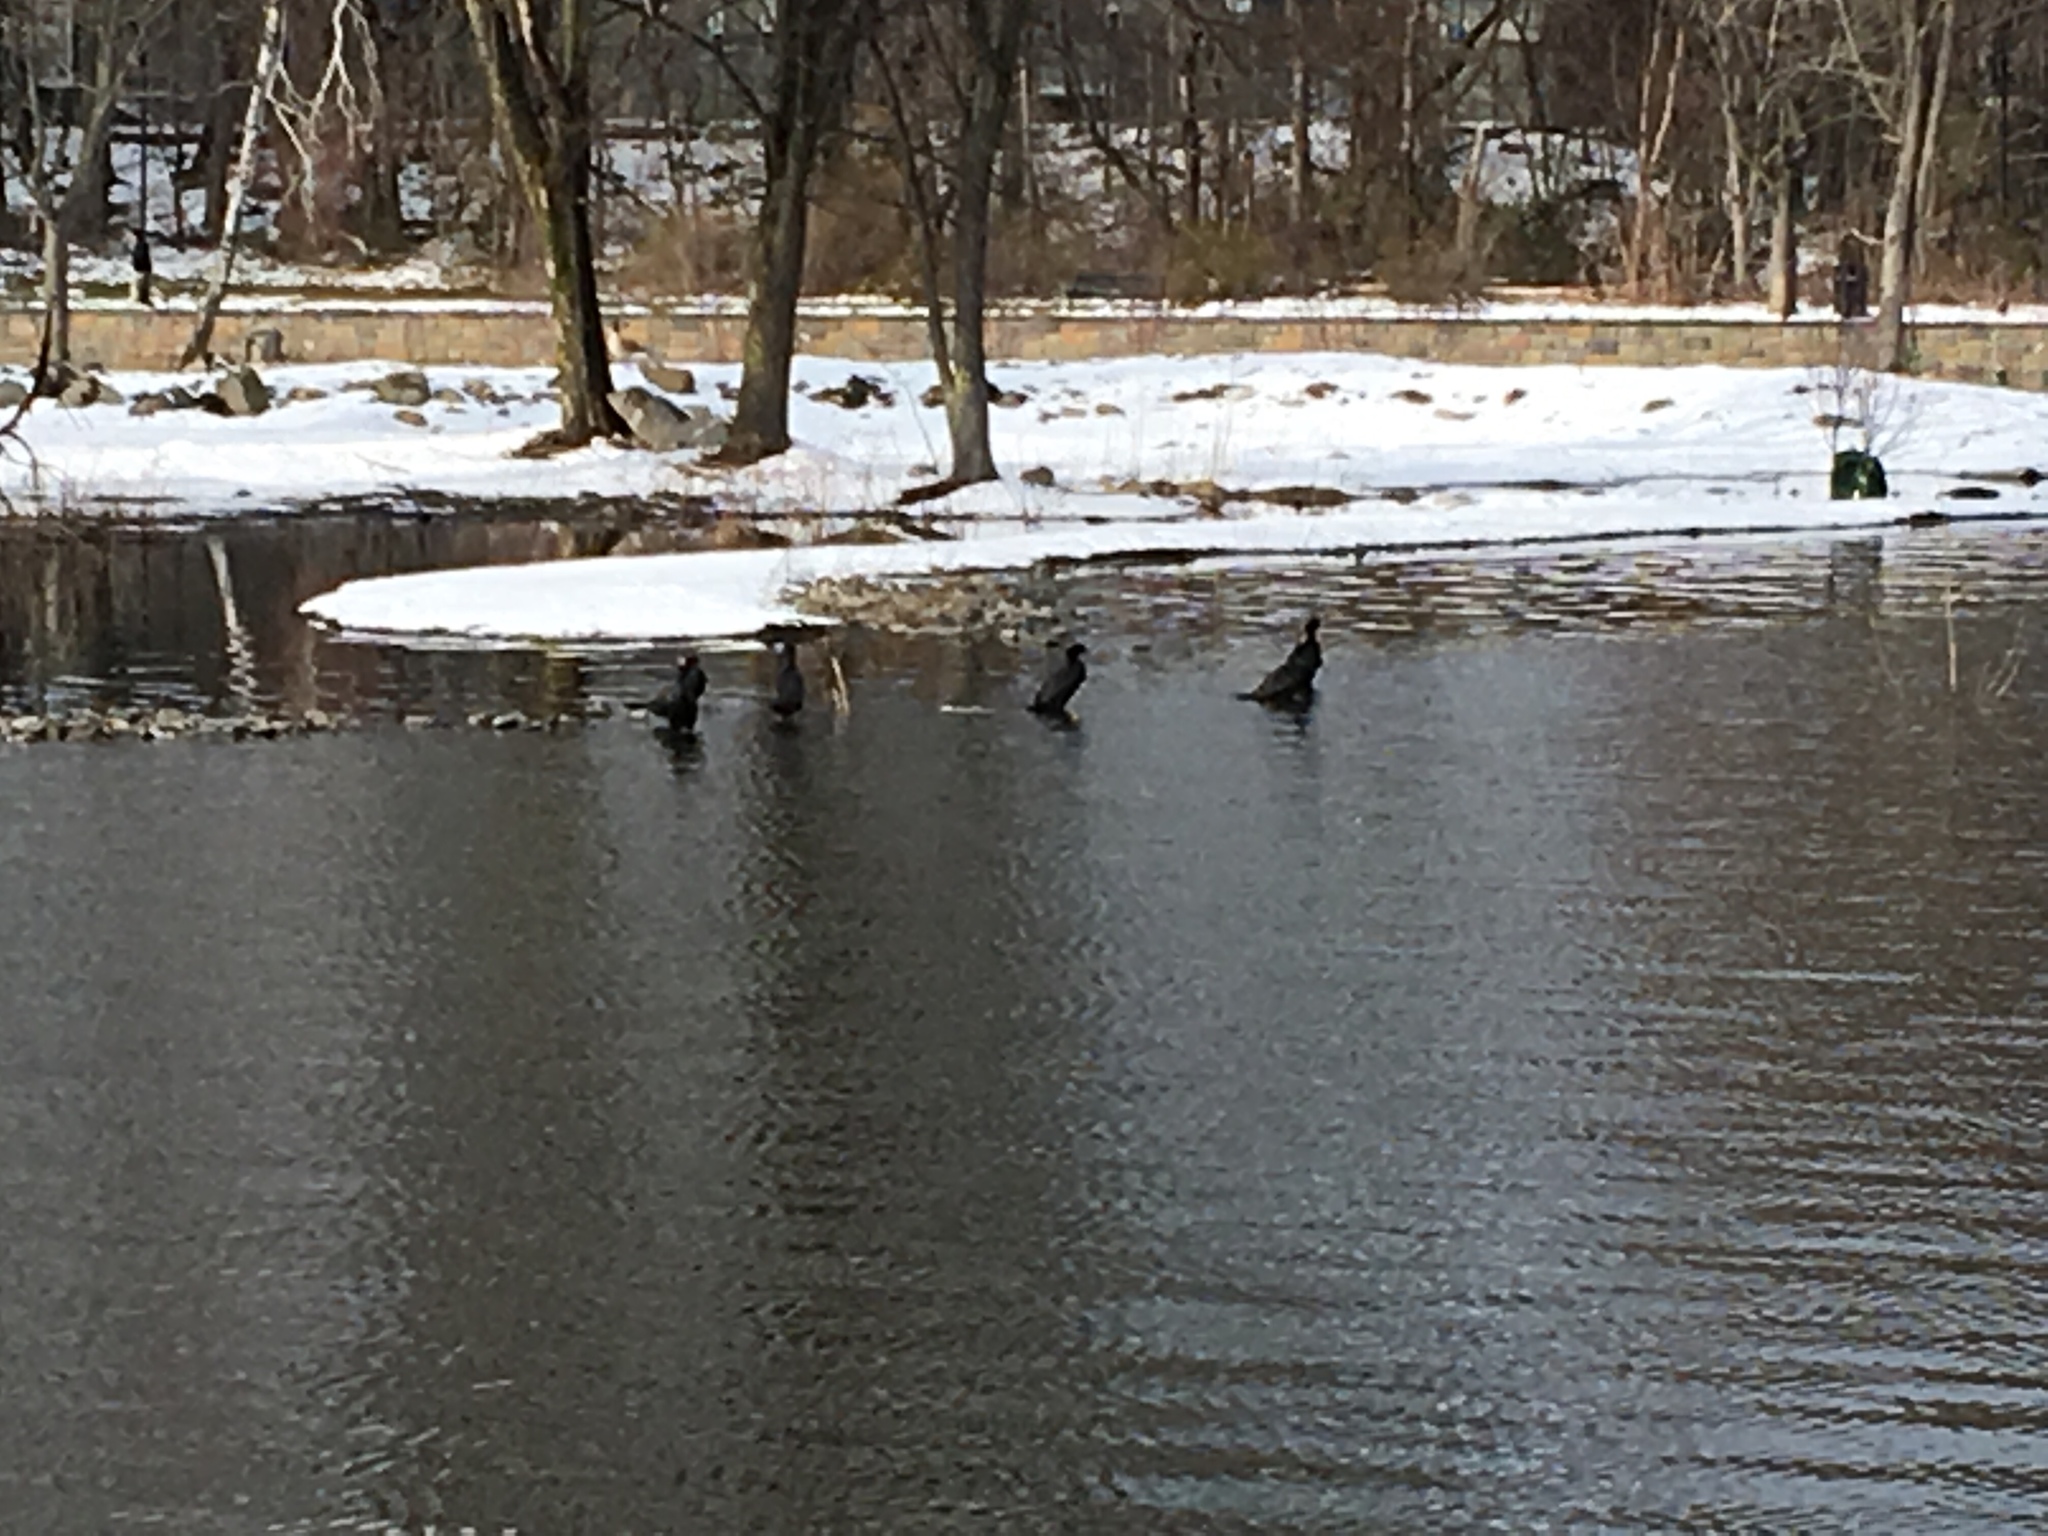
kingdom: Animalia
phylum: Chordata
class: Aves
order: Suliformes
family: Phalacrocoracidae
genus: Phalacrocorax
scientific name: Phalacrocorax auritus
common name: Double-crested cormorant
